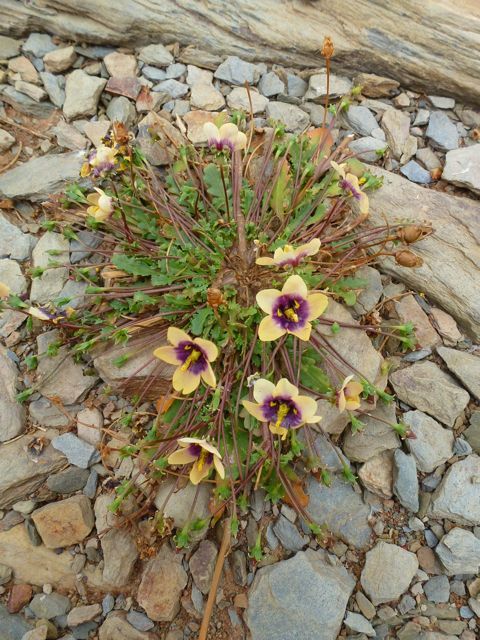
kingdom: Plantae
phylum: Tracheophyta
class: Magnoliopsida
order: Lamiales
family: Scrophulariaceae
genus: Diascia
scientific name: Diascia bicolor
